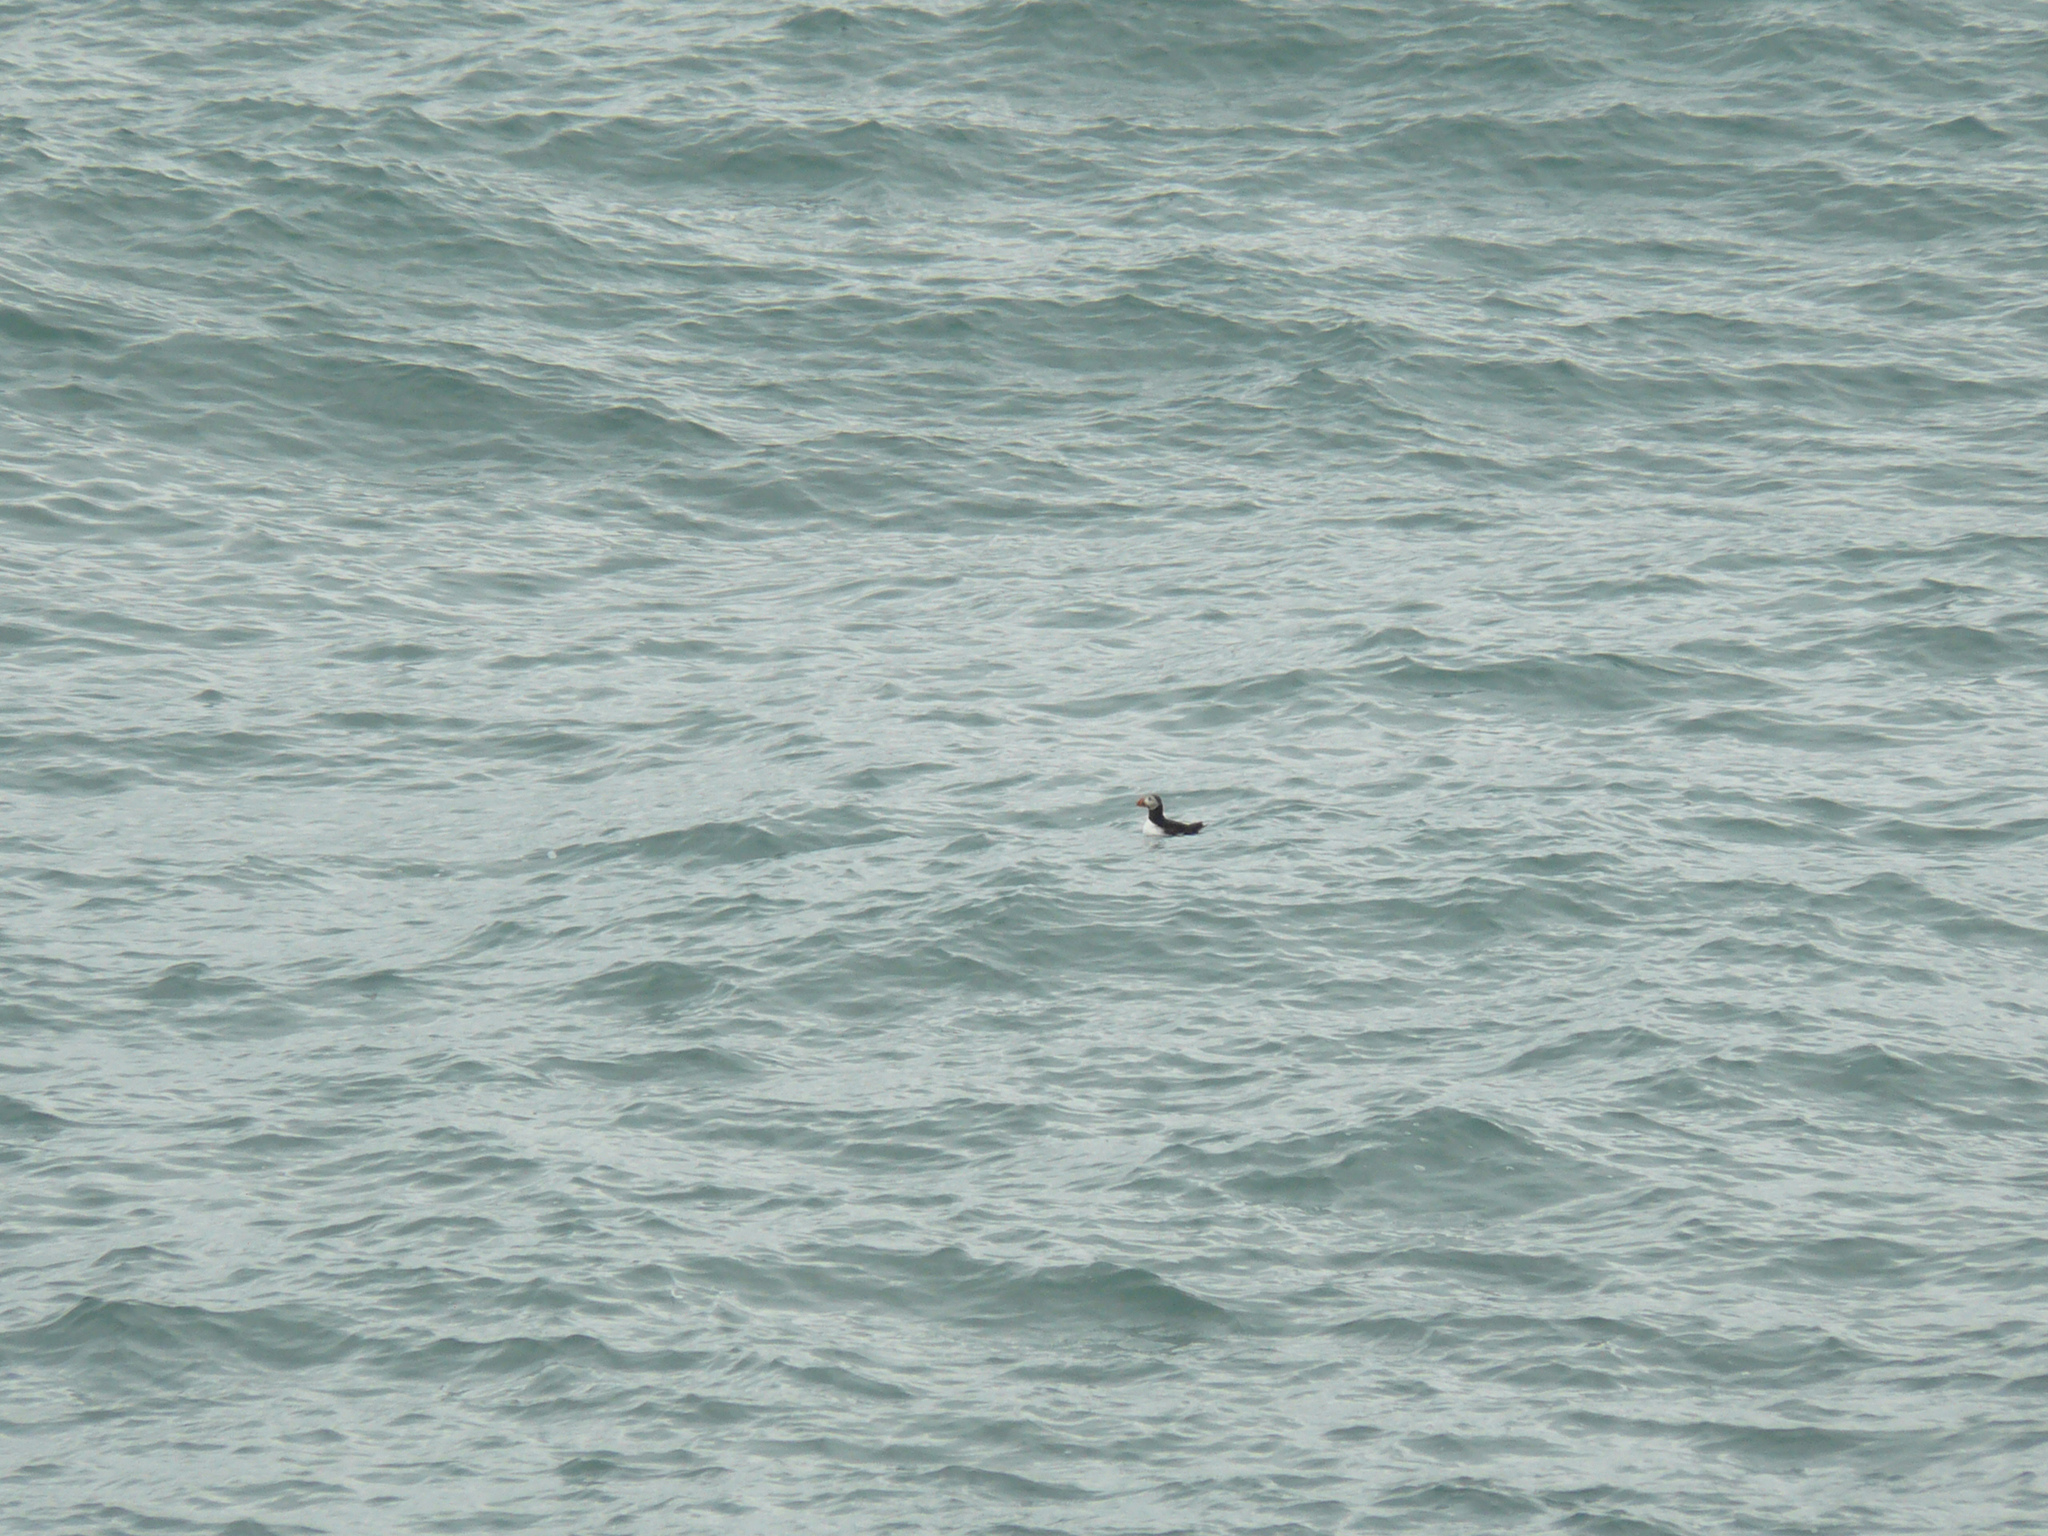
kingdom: Animalia
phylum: Chordata
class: Aves
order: Charadriiformes
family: Alcidae
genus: Fratercula
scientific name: Fratercula arctica
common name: Atlantic puffin
